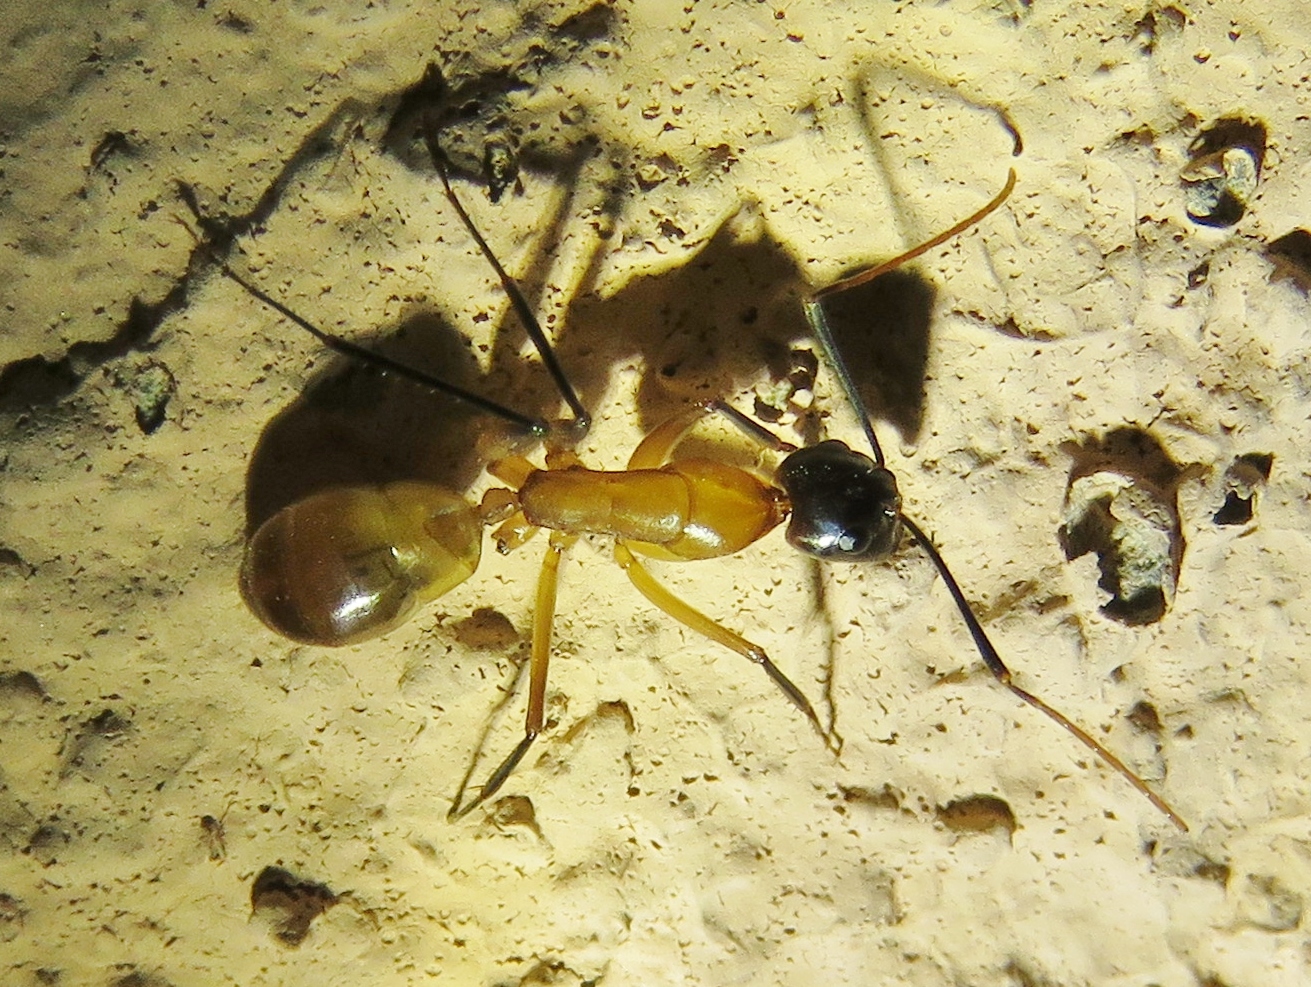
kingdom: Animalia
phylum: Arthropoda
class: Insecta
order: Hymenoptera
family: Formicidae
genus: Camponotus
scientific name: Camponotus ocreatus
